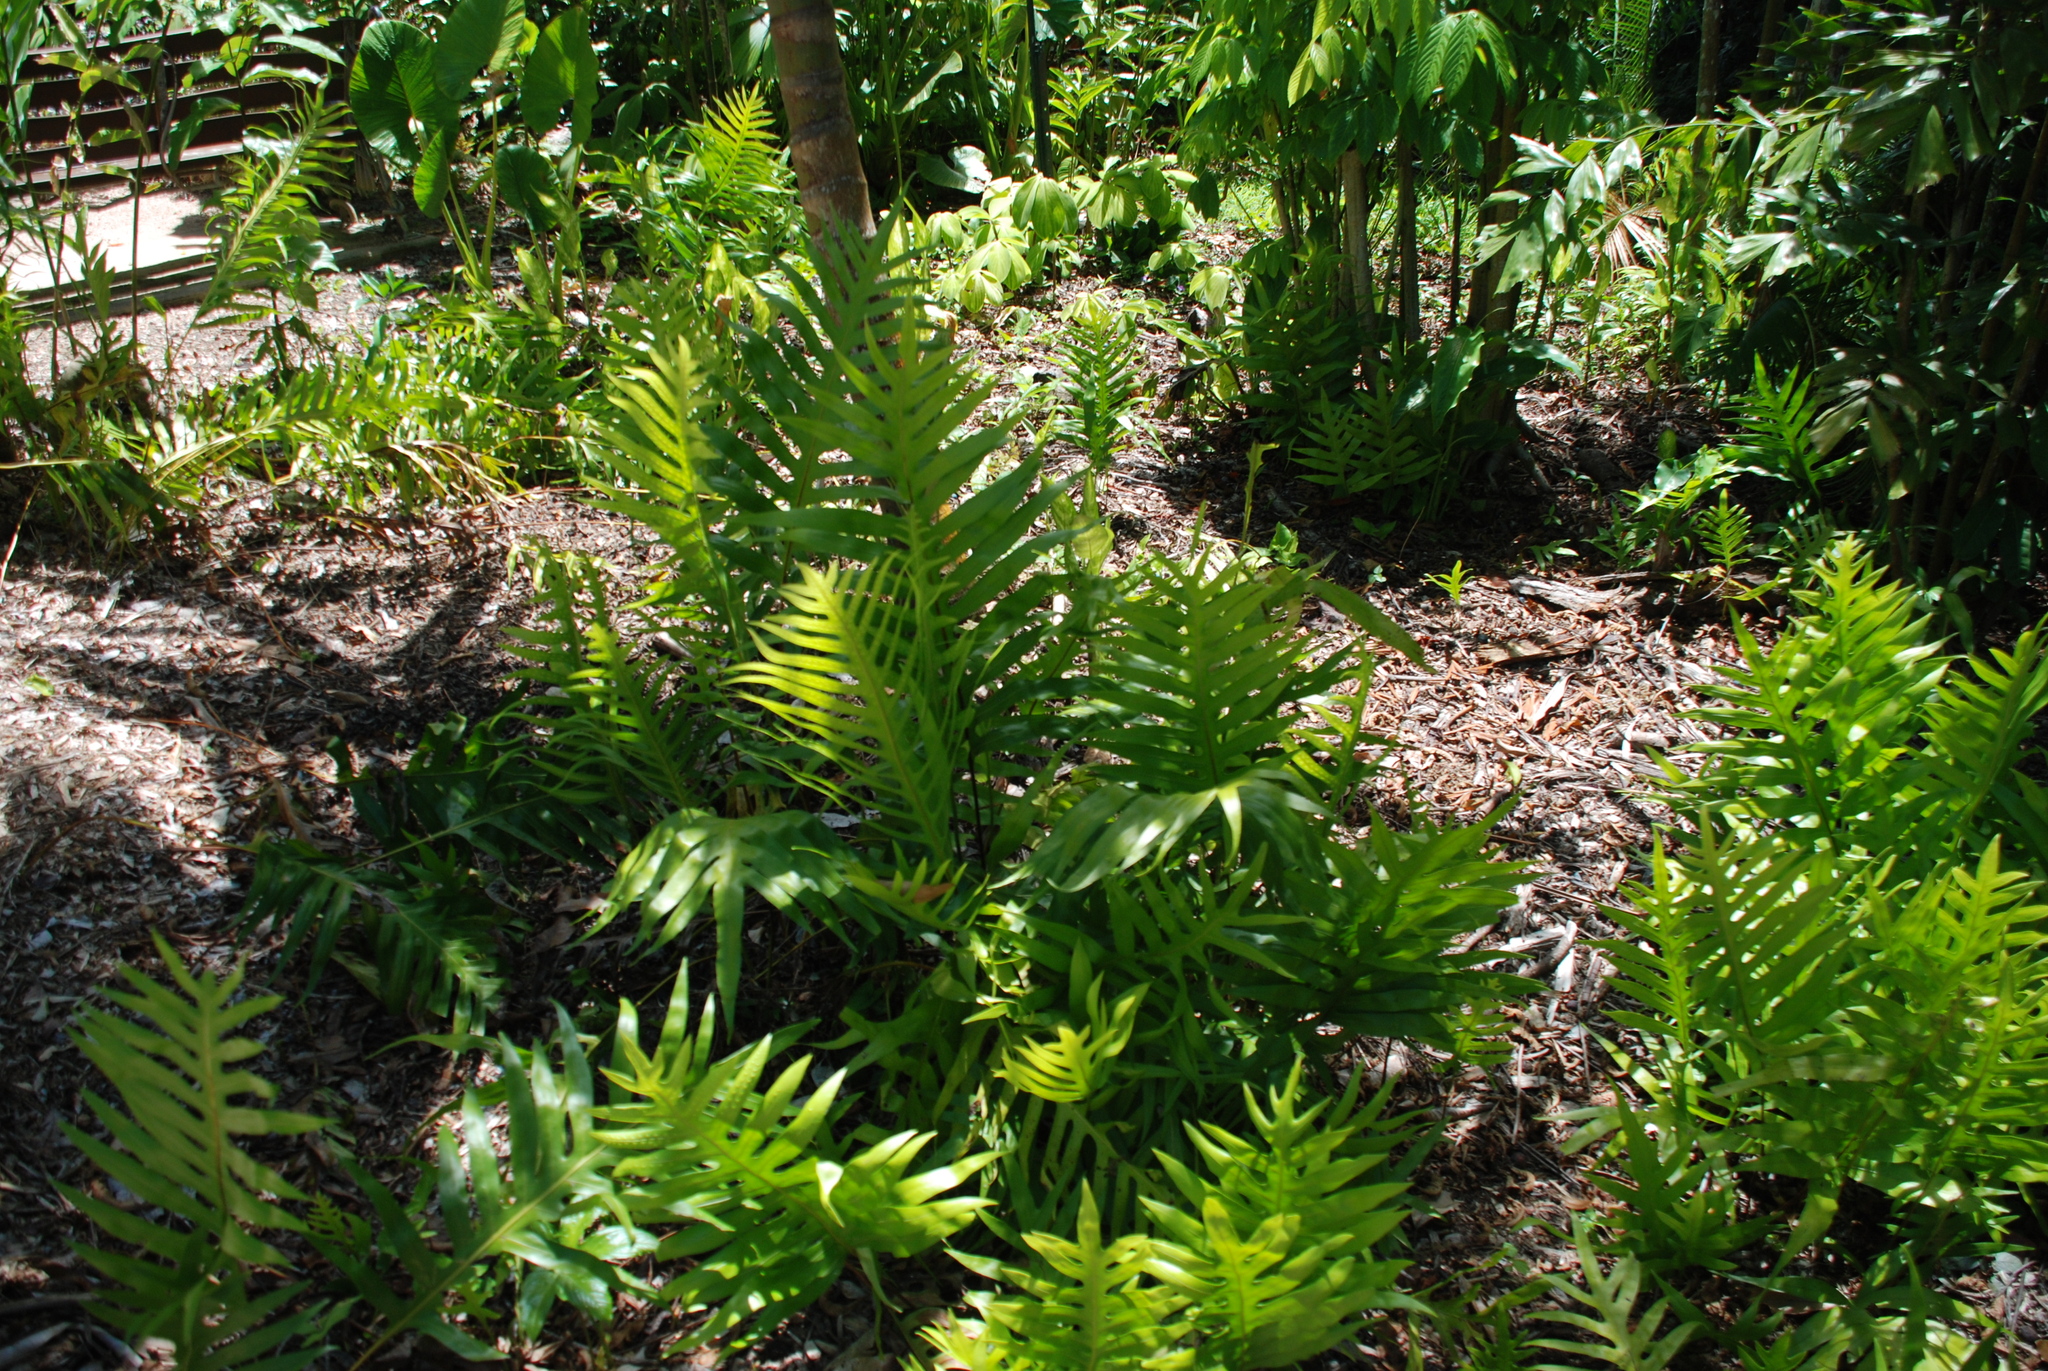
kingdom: Plantae
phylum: Tracheophyta
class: Polypodiopsida
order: Polypodiales
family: Polypodiaceae
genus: Drynaria
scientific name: Drynaria sparsisora
